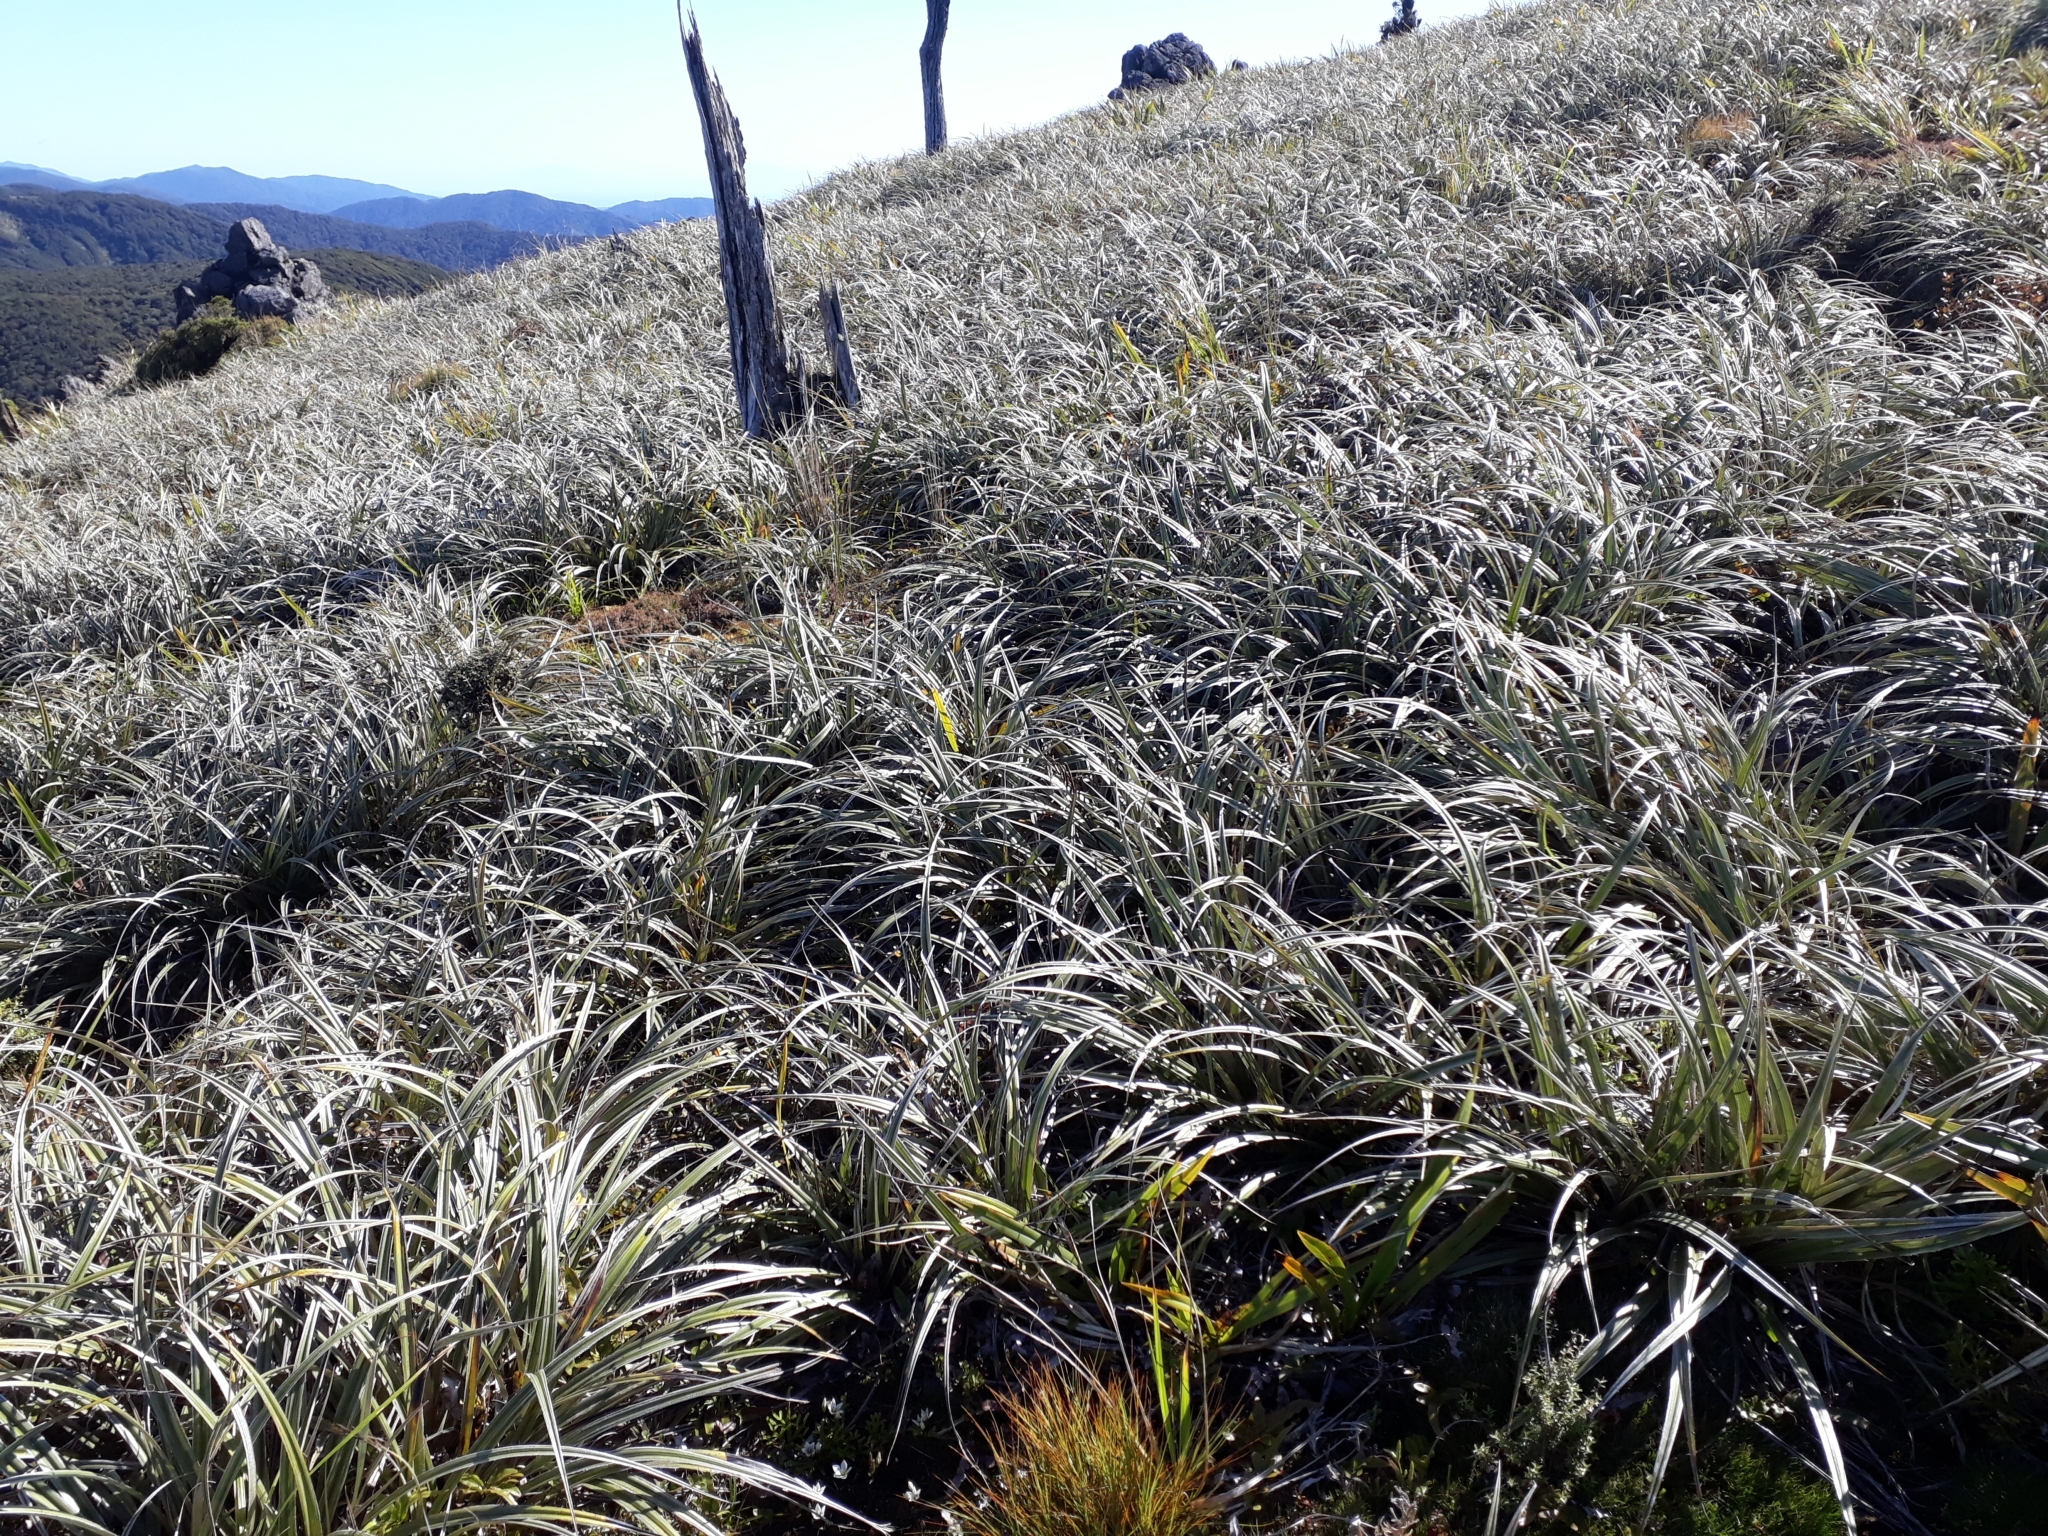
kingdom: Plantae
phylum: Tracheophyta
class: Liliopsida
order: Asparagales
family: Asteliaceae
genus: Astelia
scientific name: Astelia nervosa
